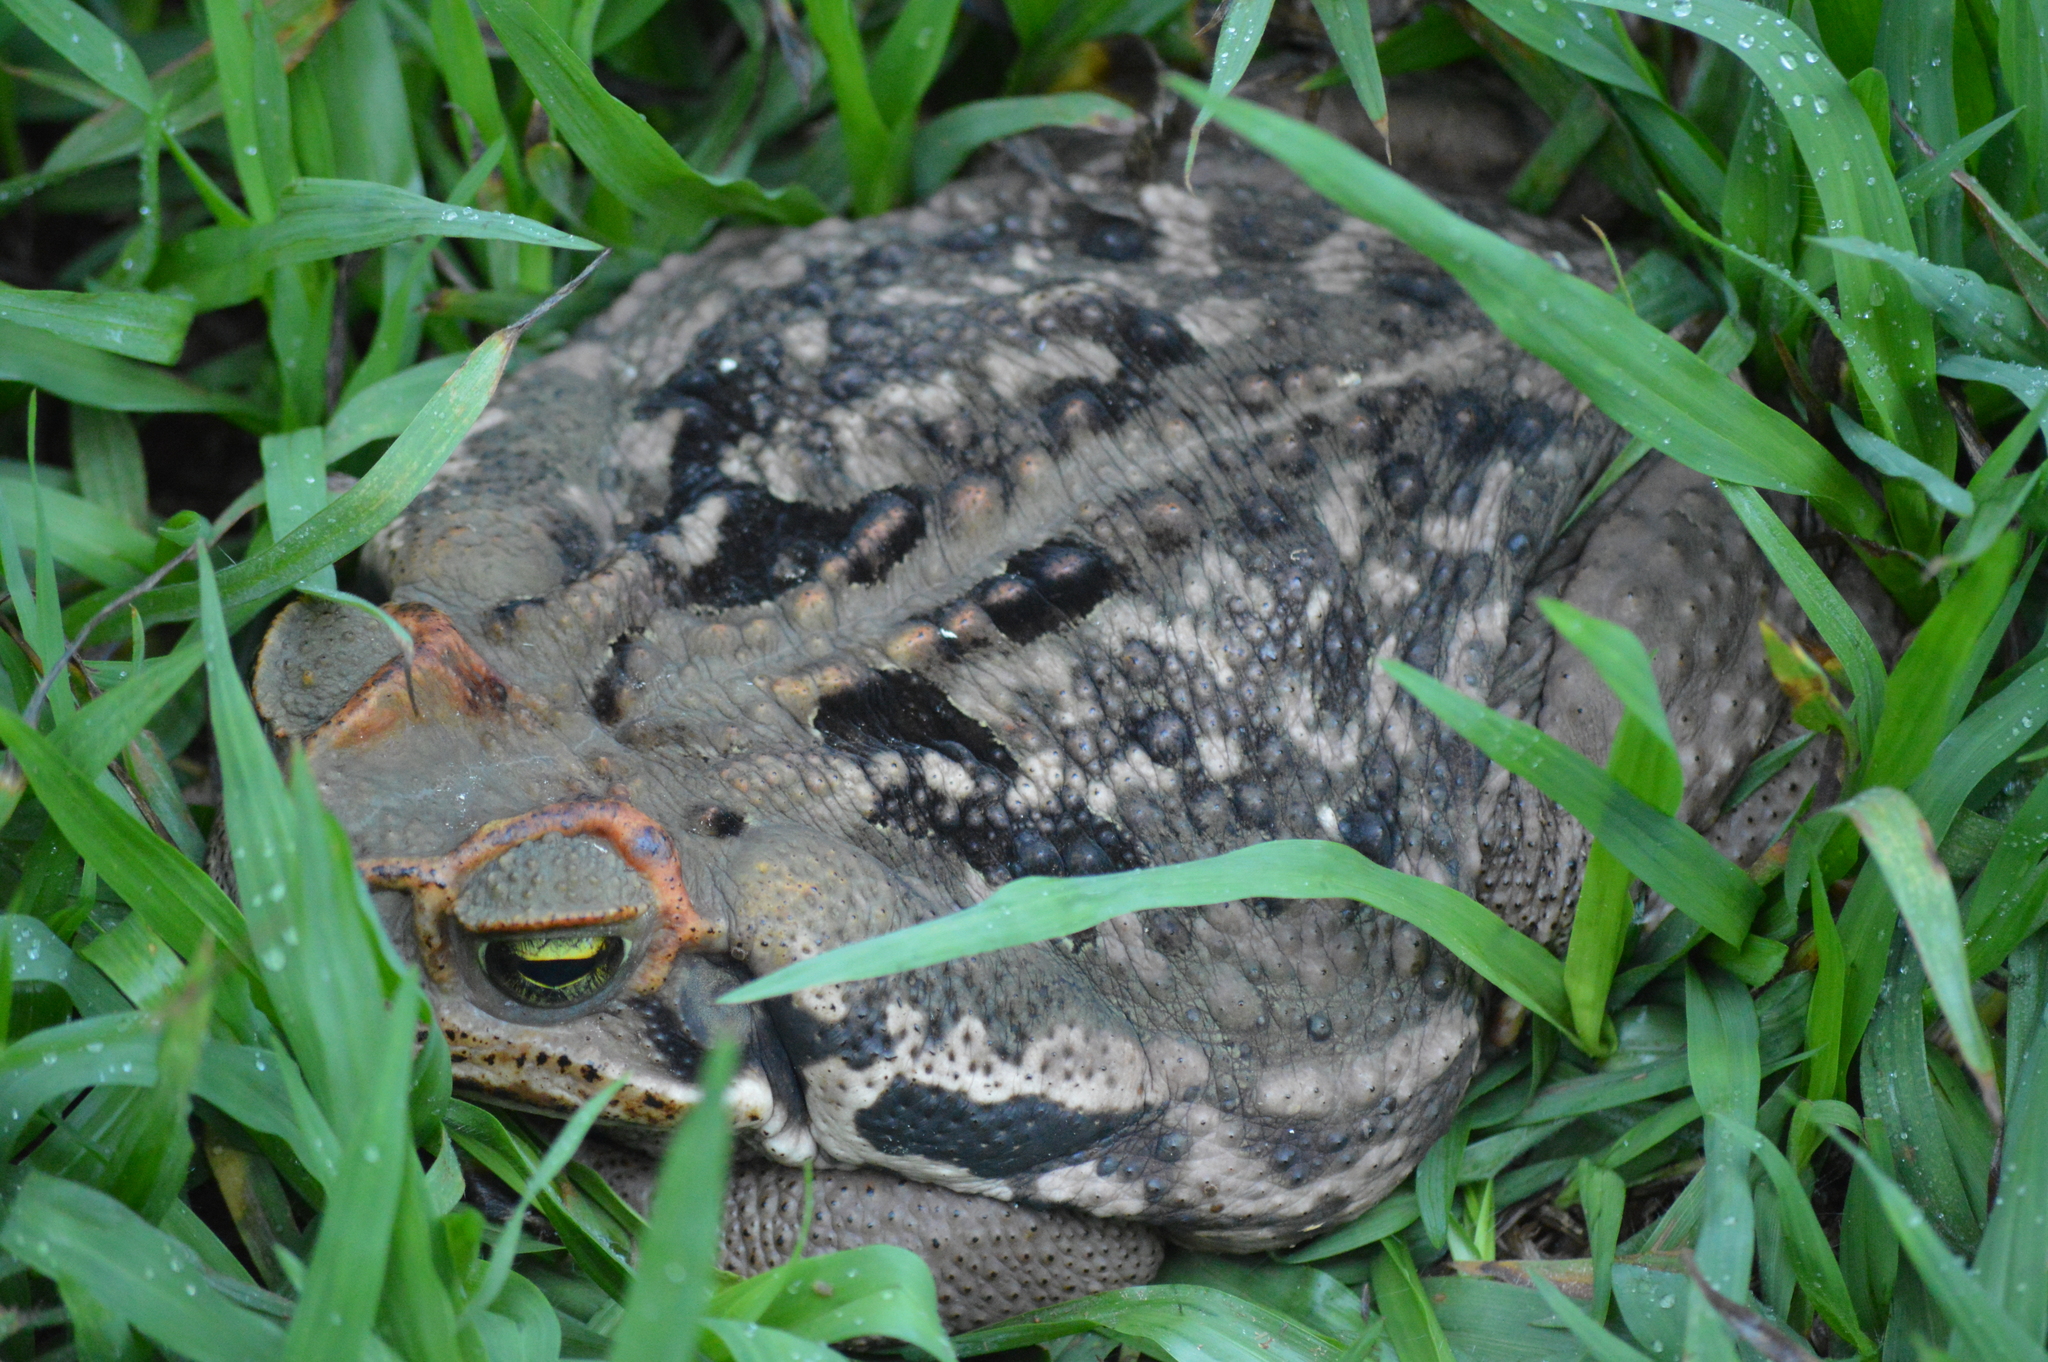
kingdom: Animalia
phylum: Chordata
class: Amphibia
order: Anura
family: Bufonidae
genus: Rhinella
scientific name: Rhinella diptycha
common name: Cope's toad
